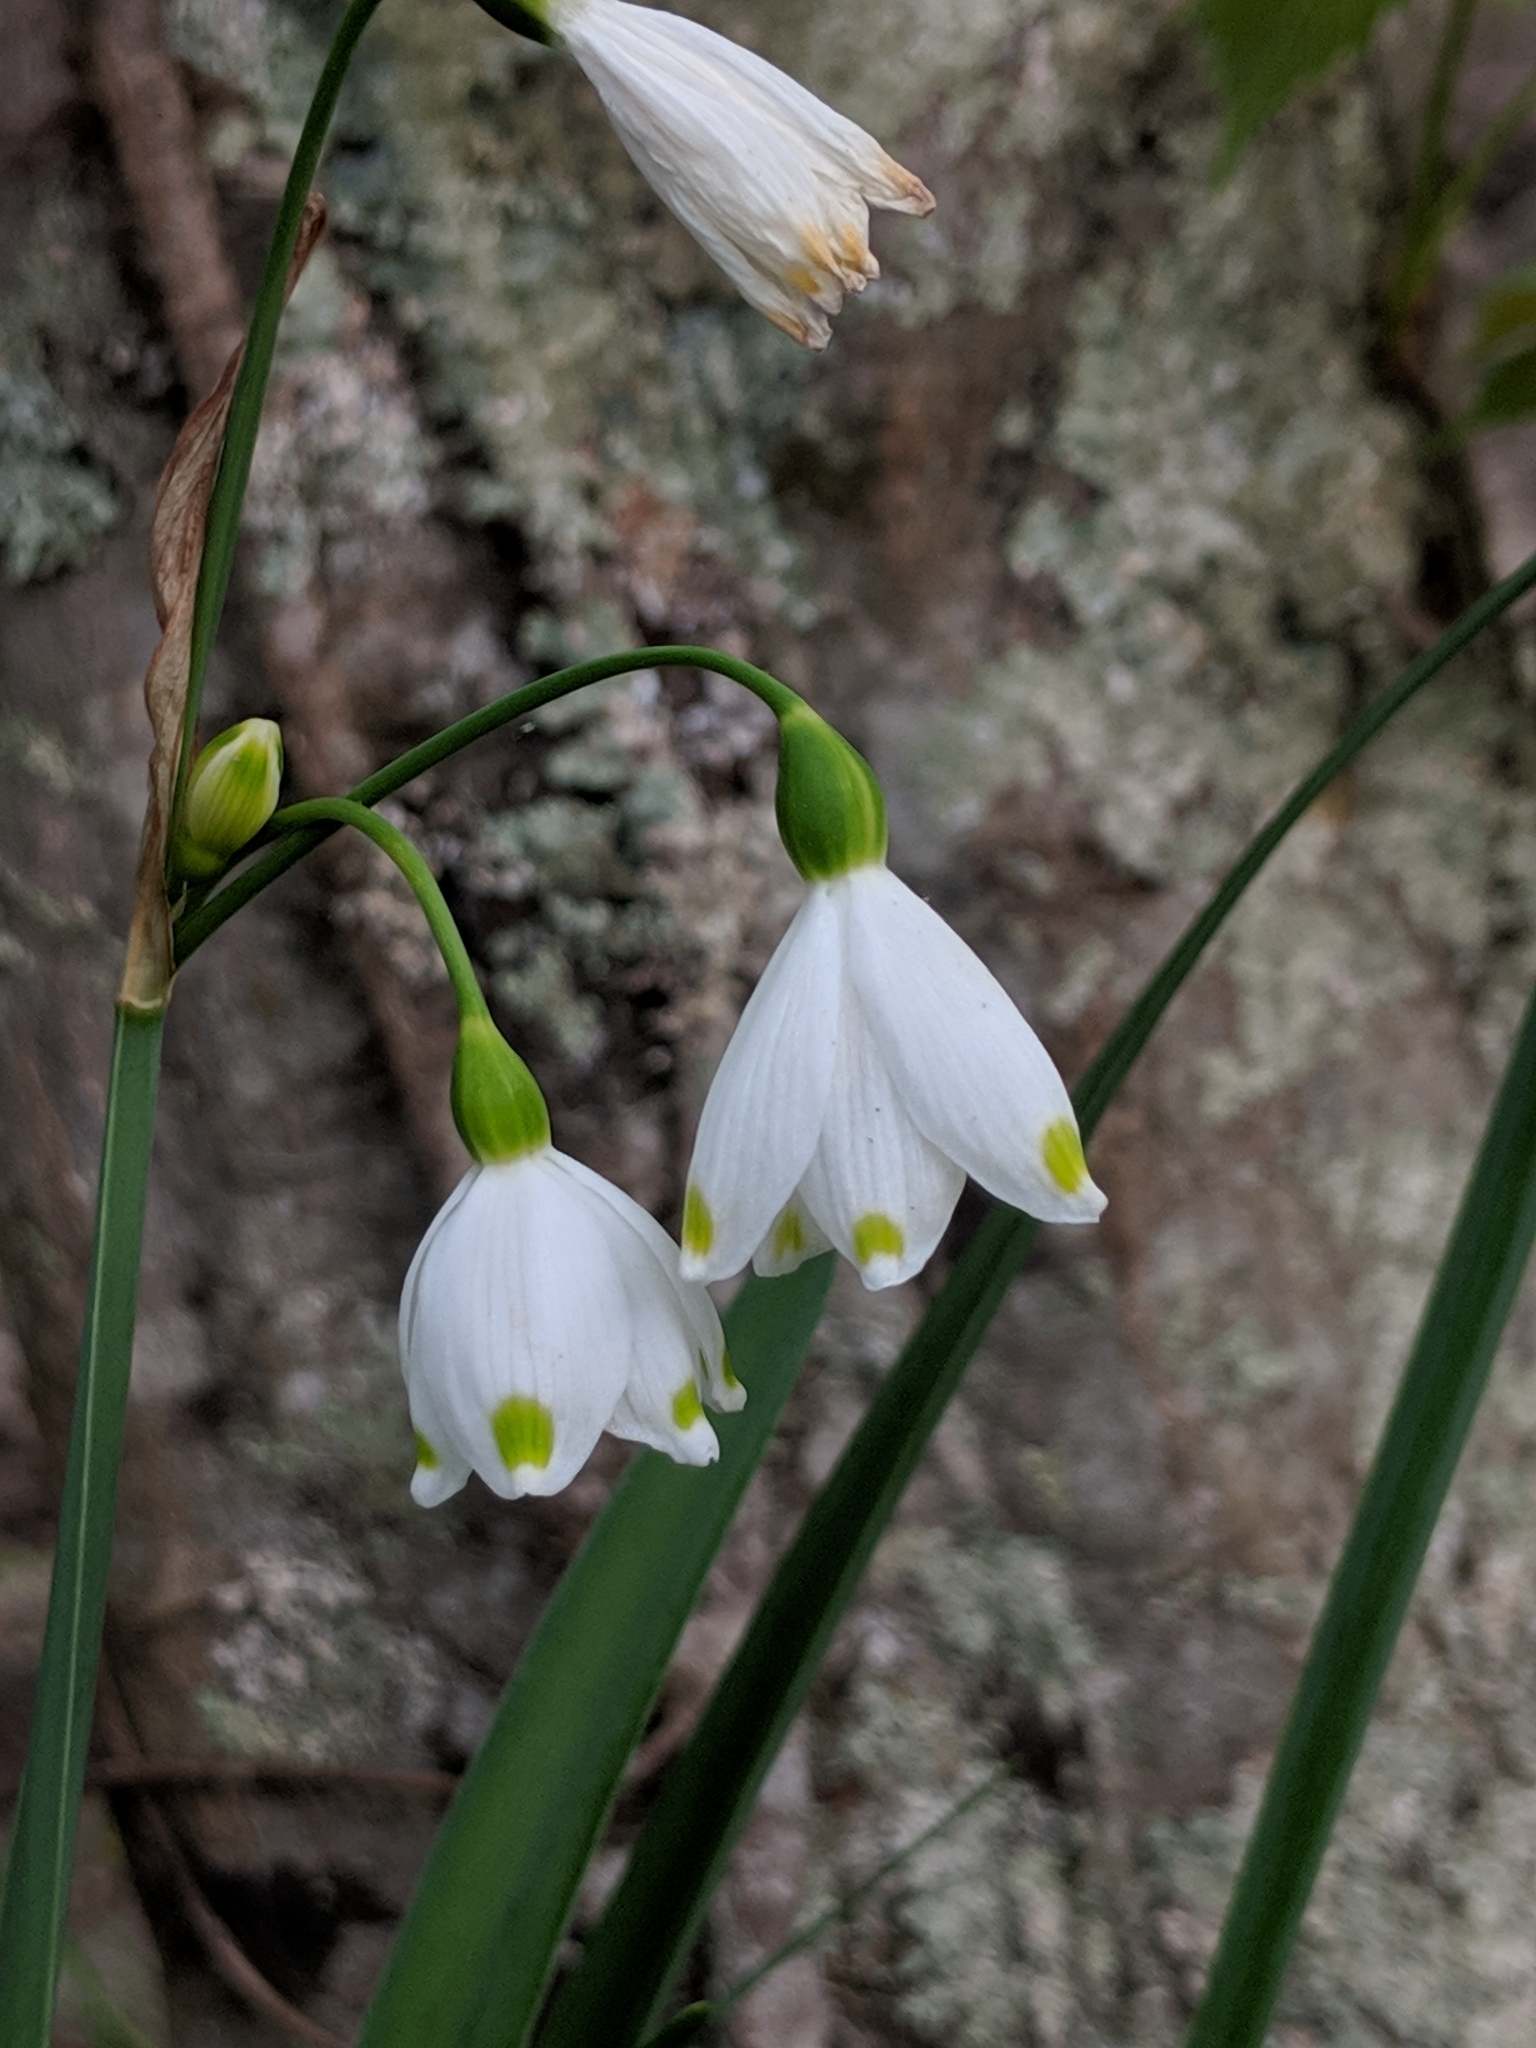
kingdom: Plantae
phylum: Tracheophyta
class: Liliopsida
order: Asparagales
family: Amaryllidaceae
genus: Leucojum
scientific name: Leucojum aestivum
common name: Summer snowflake
